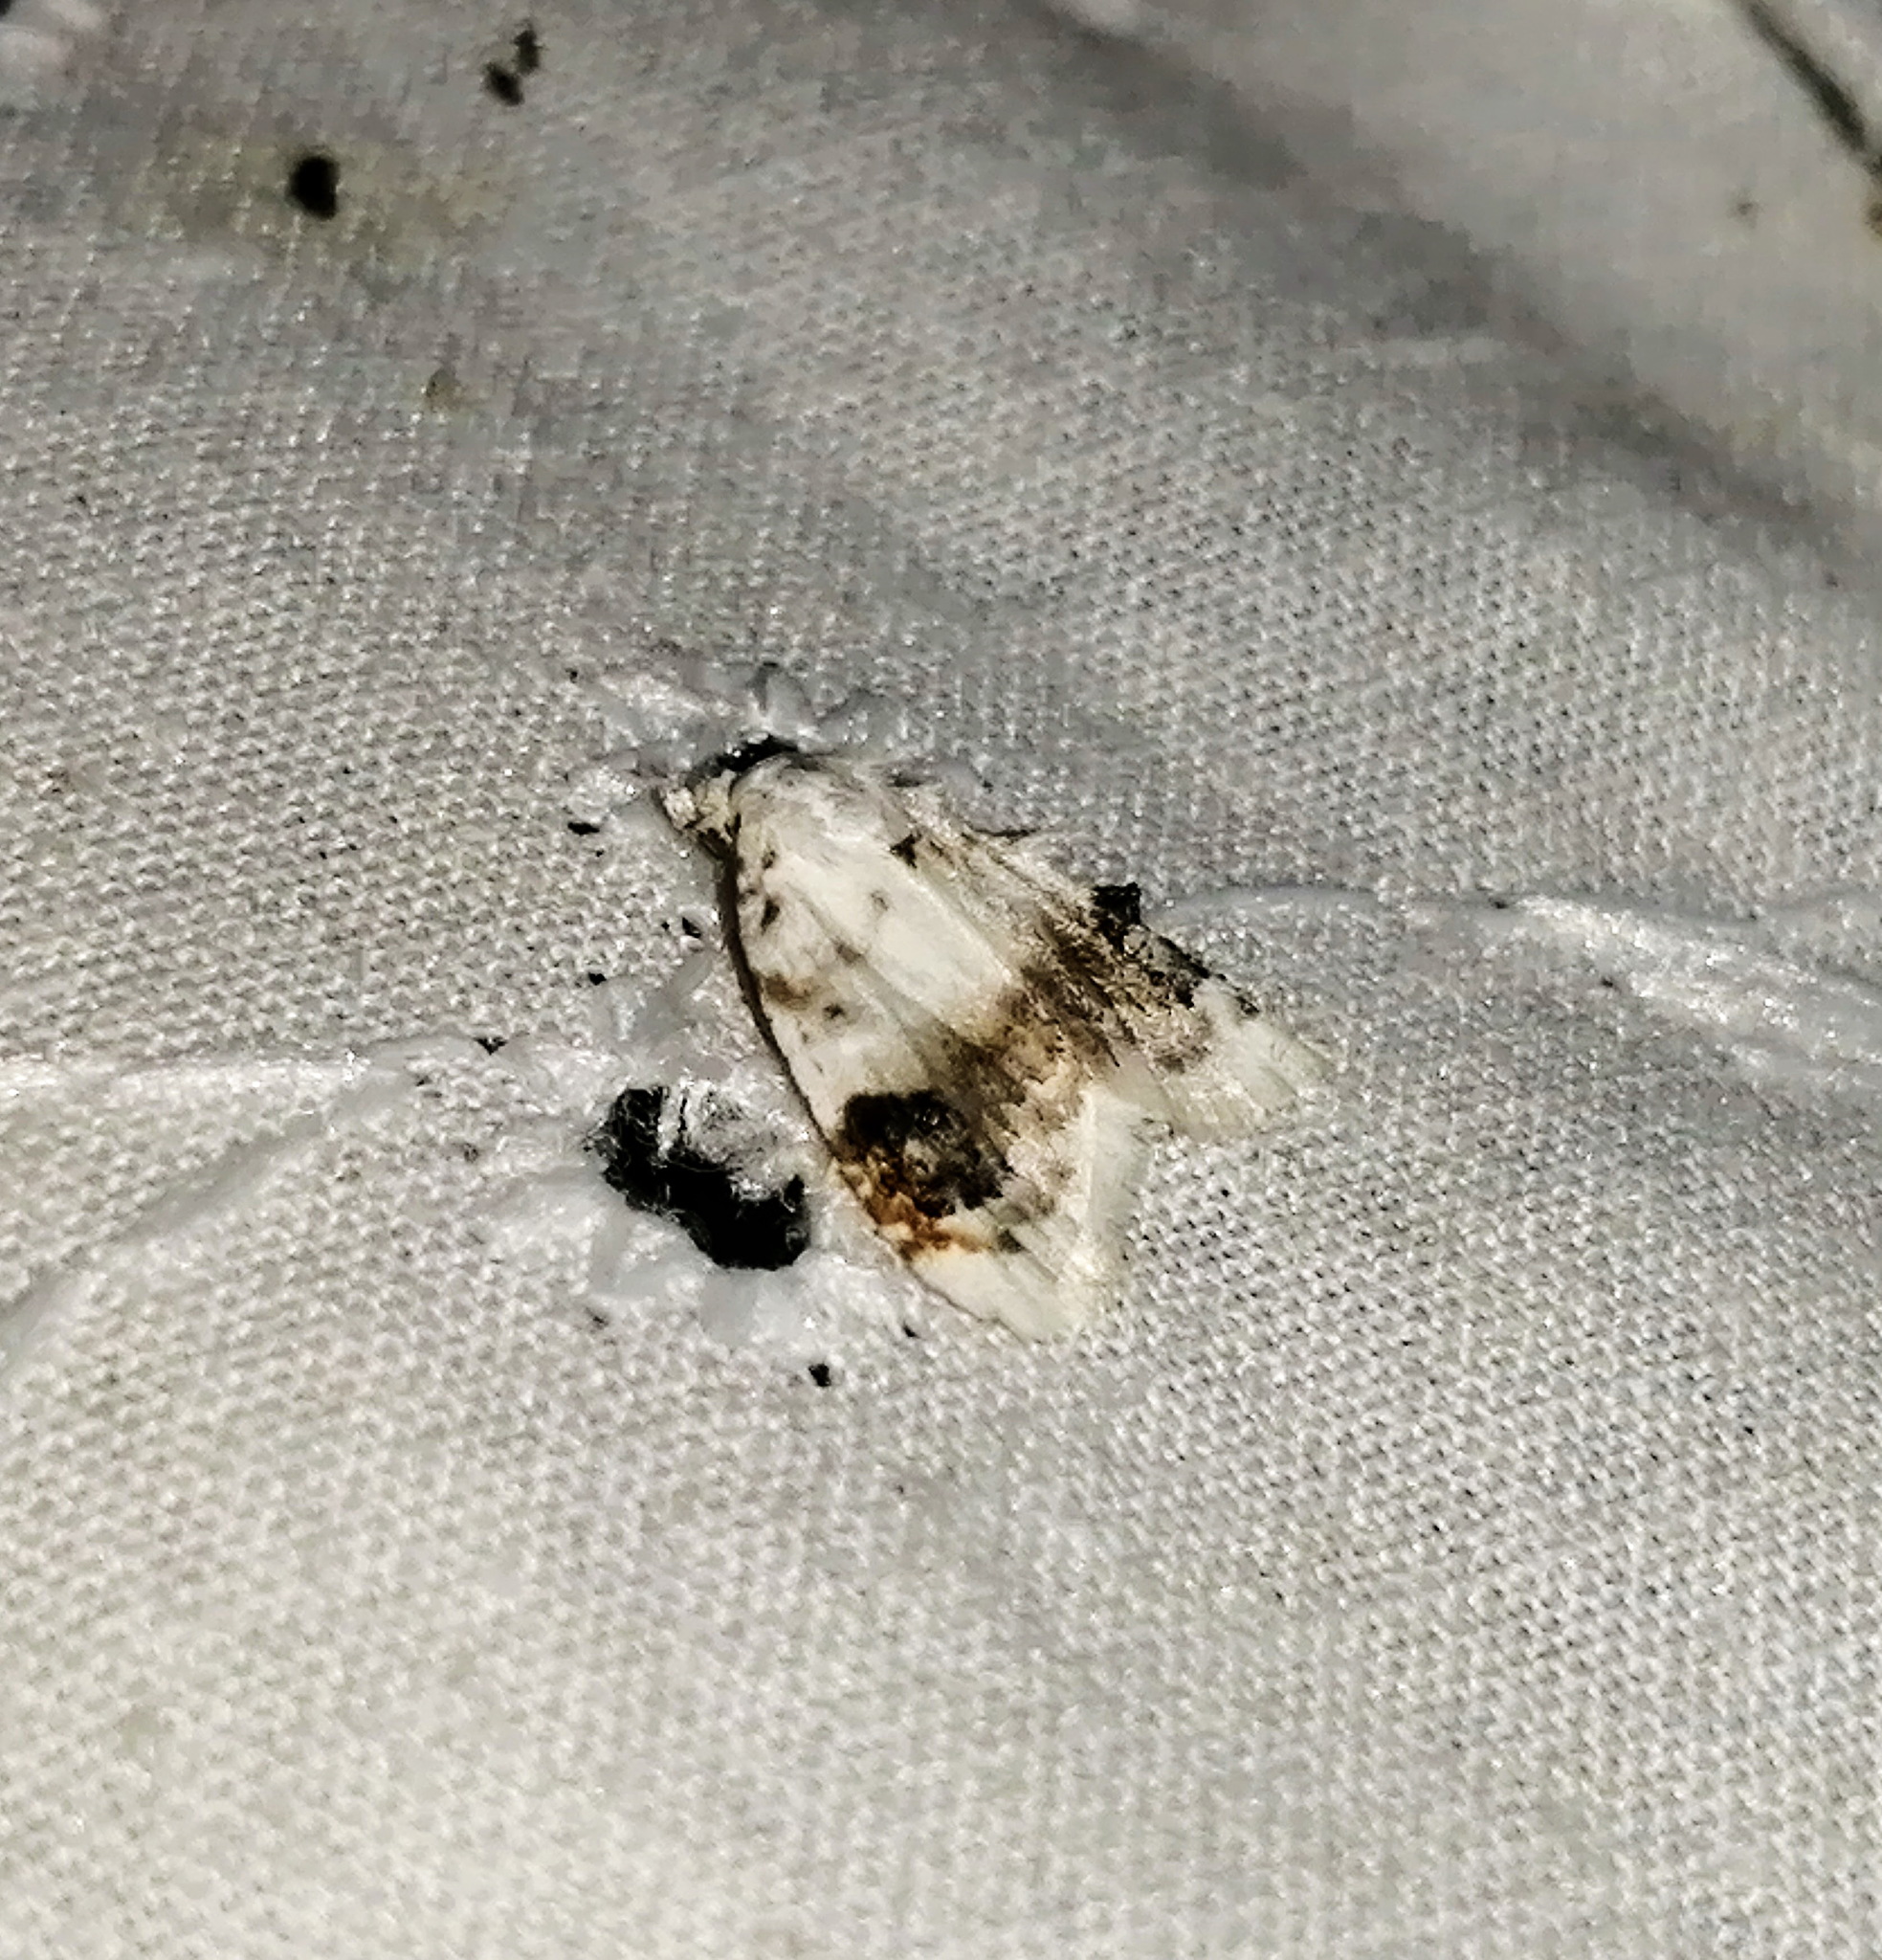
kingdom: Animalia
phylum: Arthropoda
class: Insecta
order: Lepidoptera
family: Nolidae
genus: Nola
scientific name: Nola cilicoides
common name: Blurry-patched nola moth
